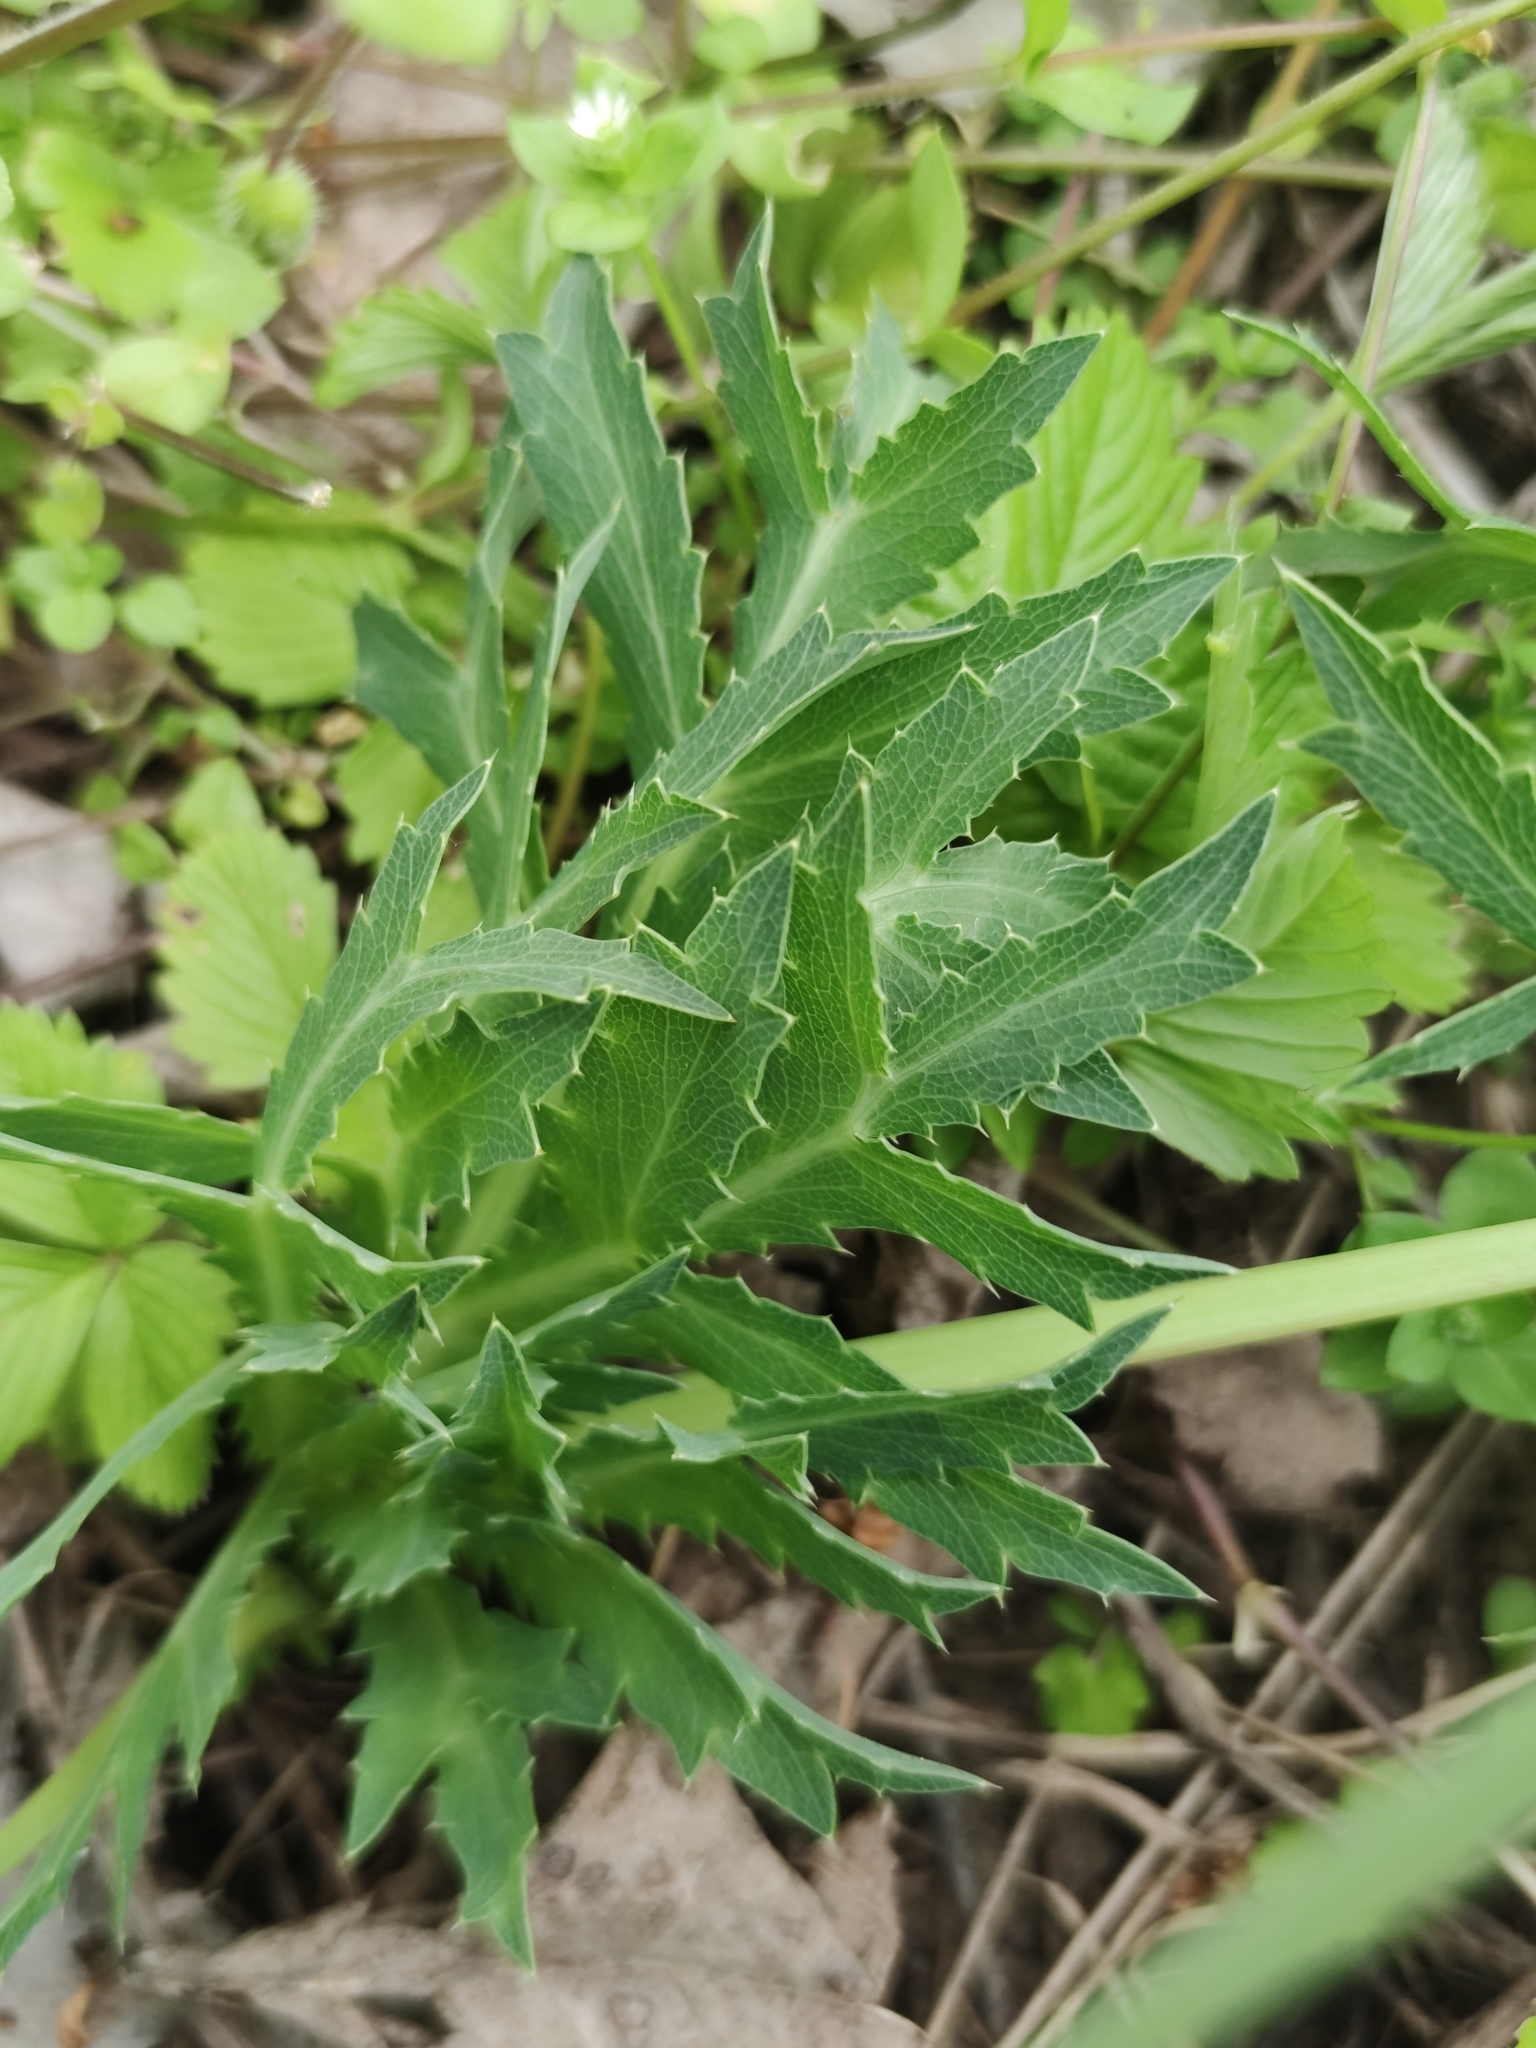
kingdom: Plantae
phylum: Tracheophyta
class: Magnoliopsida
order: Apiales
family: Apiaceae
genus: Eryngium
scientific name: Eryngium campestre
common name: Field eryngo
